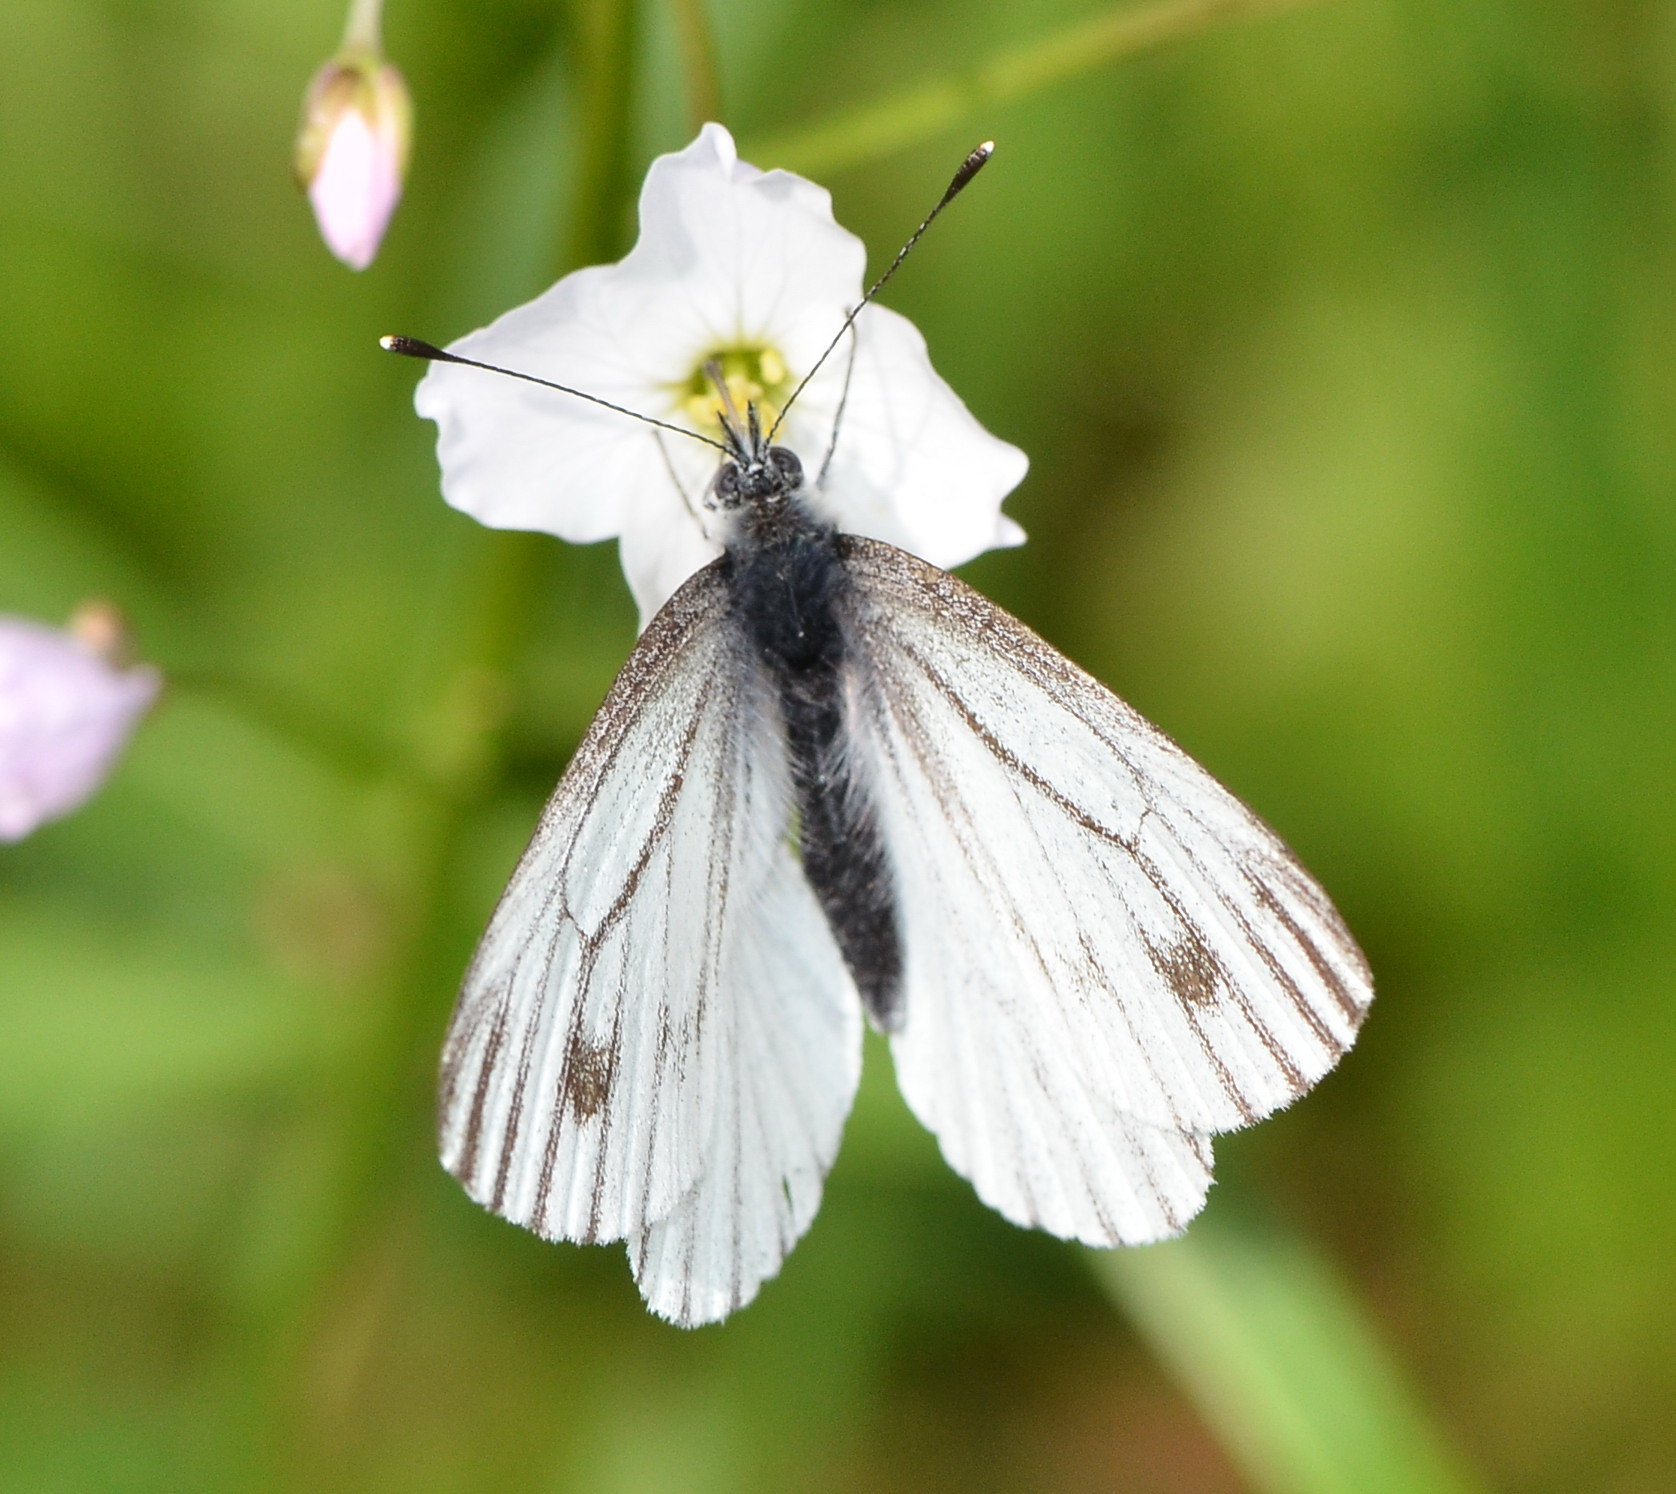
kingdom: Animalia
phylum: Arthropoda
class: Insecta
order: Lepidoptera
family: Pieridae
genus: Pieris
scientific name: Pieris marginalis
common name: Margined white
